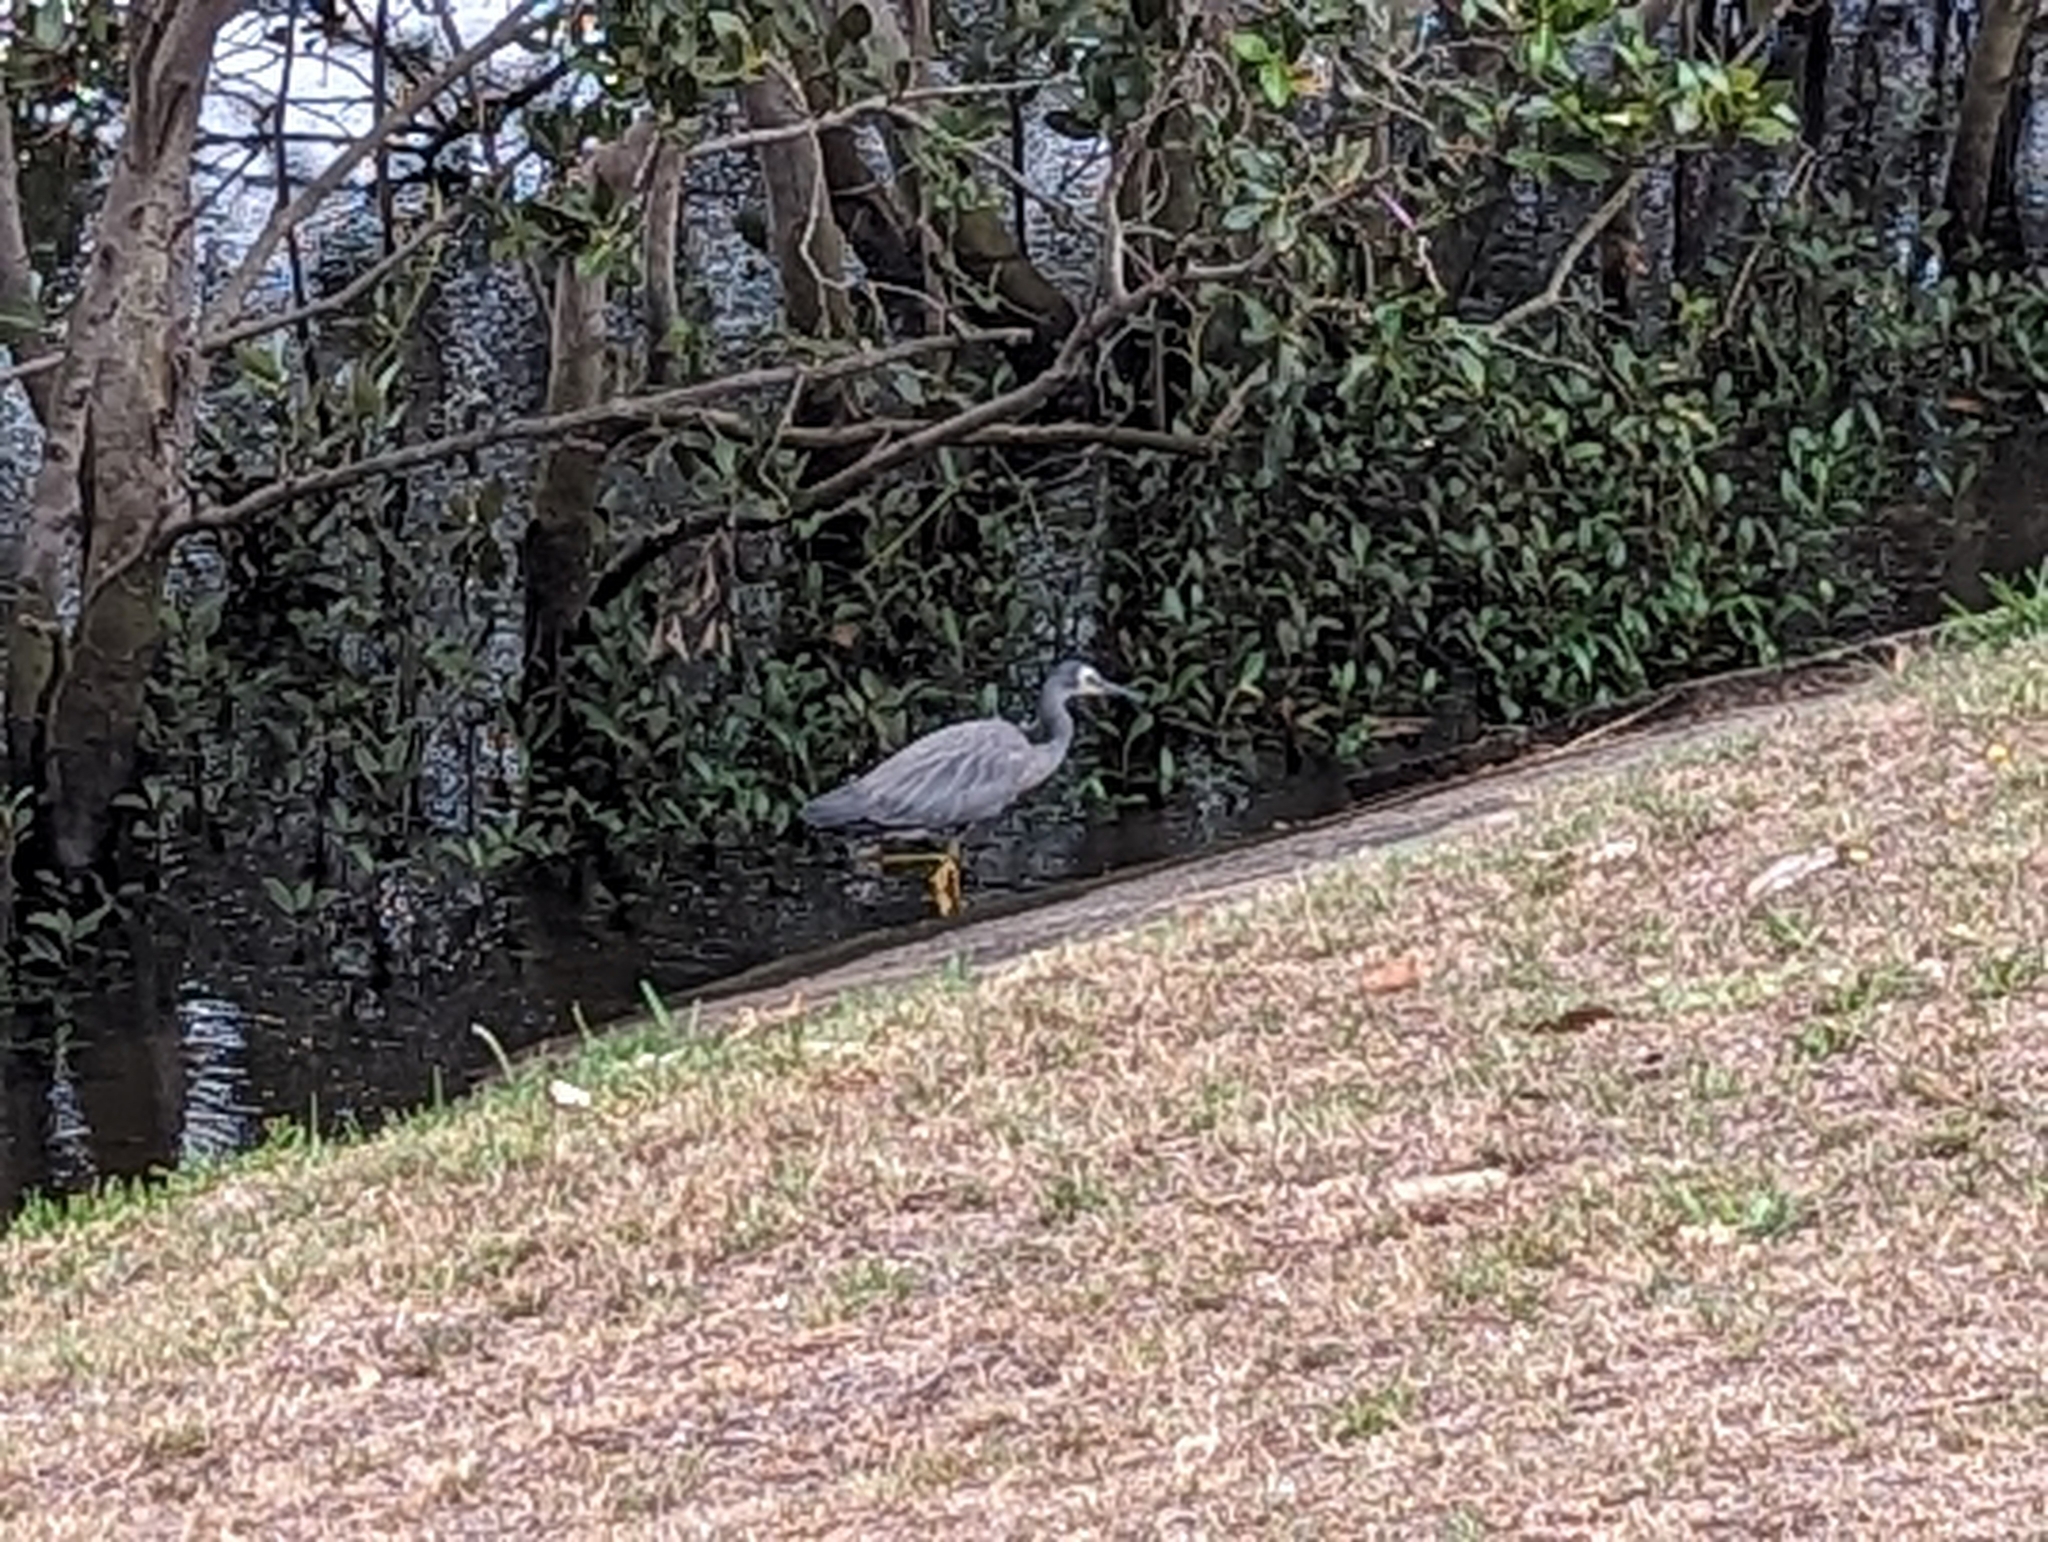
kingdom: Animalia
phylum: Chordata
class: Aves
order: Pelecaniformes
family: Ardeidae
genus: Egretta
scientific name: Egretta novaehollandiae
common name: White-faced heron
